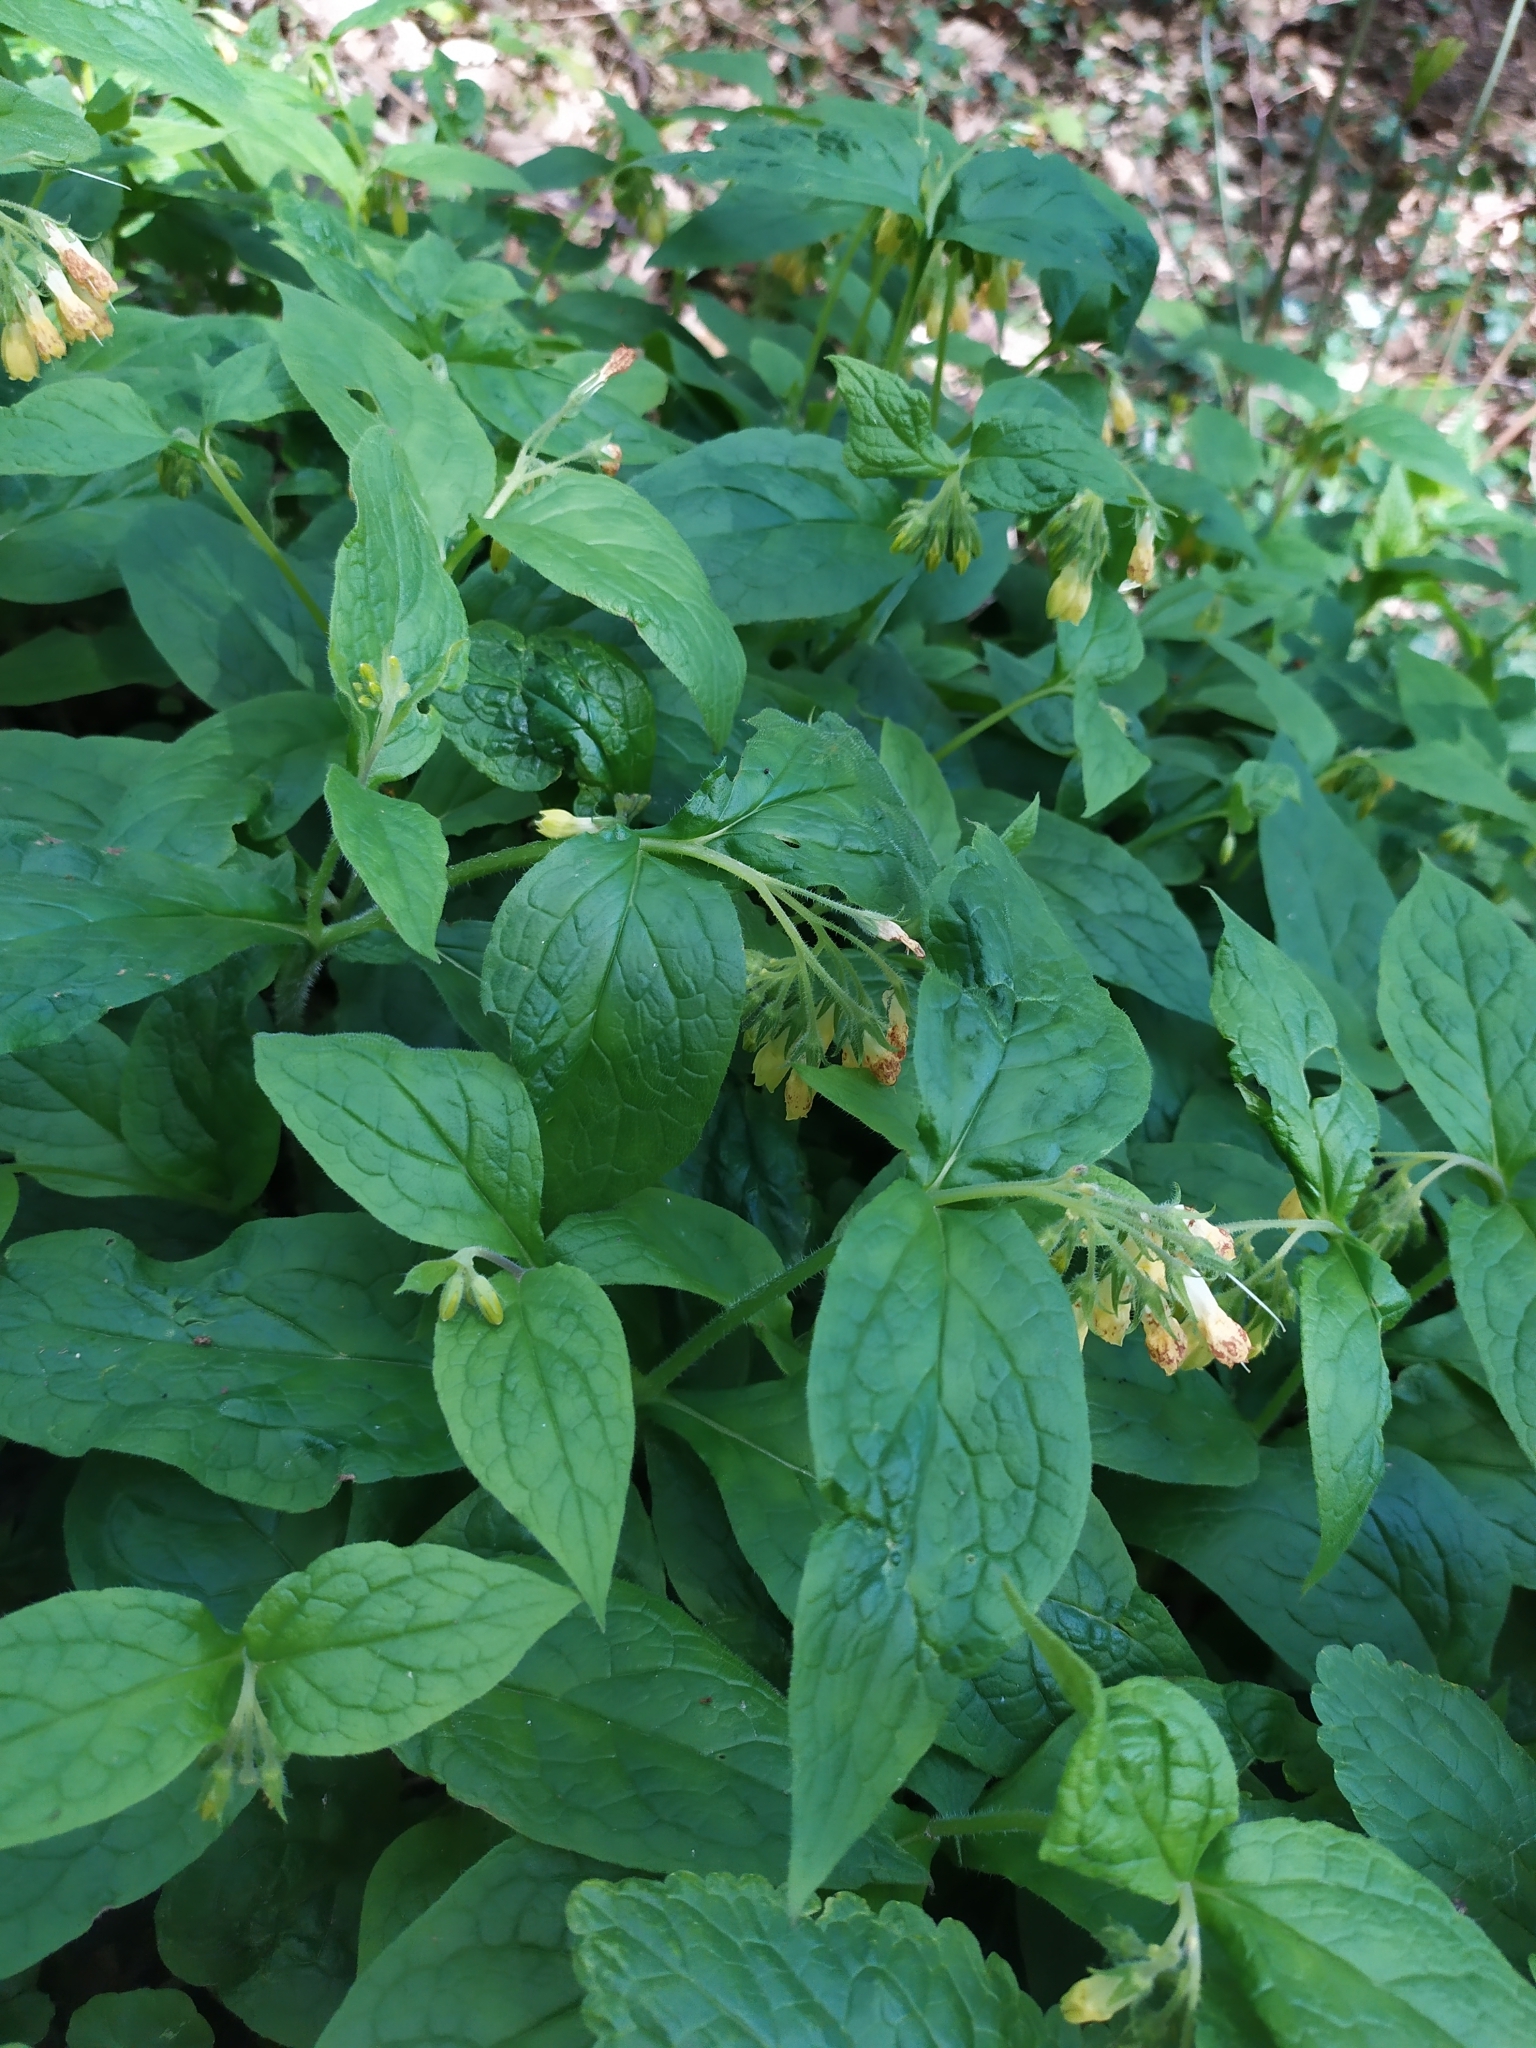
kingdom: Plantae
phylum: Tracheophyta
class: Magnoliopsida
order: Boraginales
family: Boraginaceae
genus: Symphytum
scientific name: Symphytum tuberosum
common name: Tuberous comfrey
